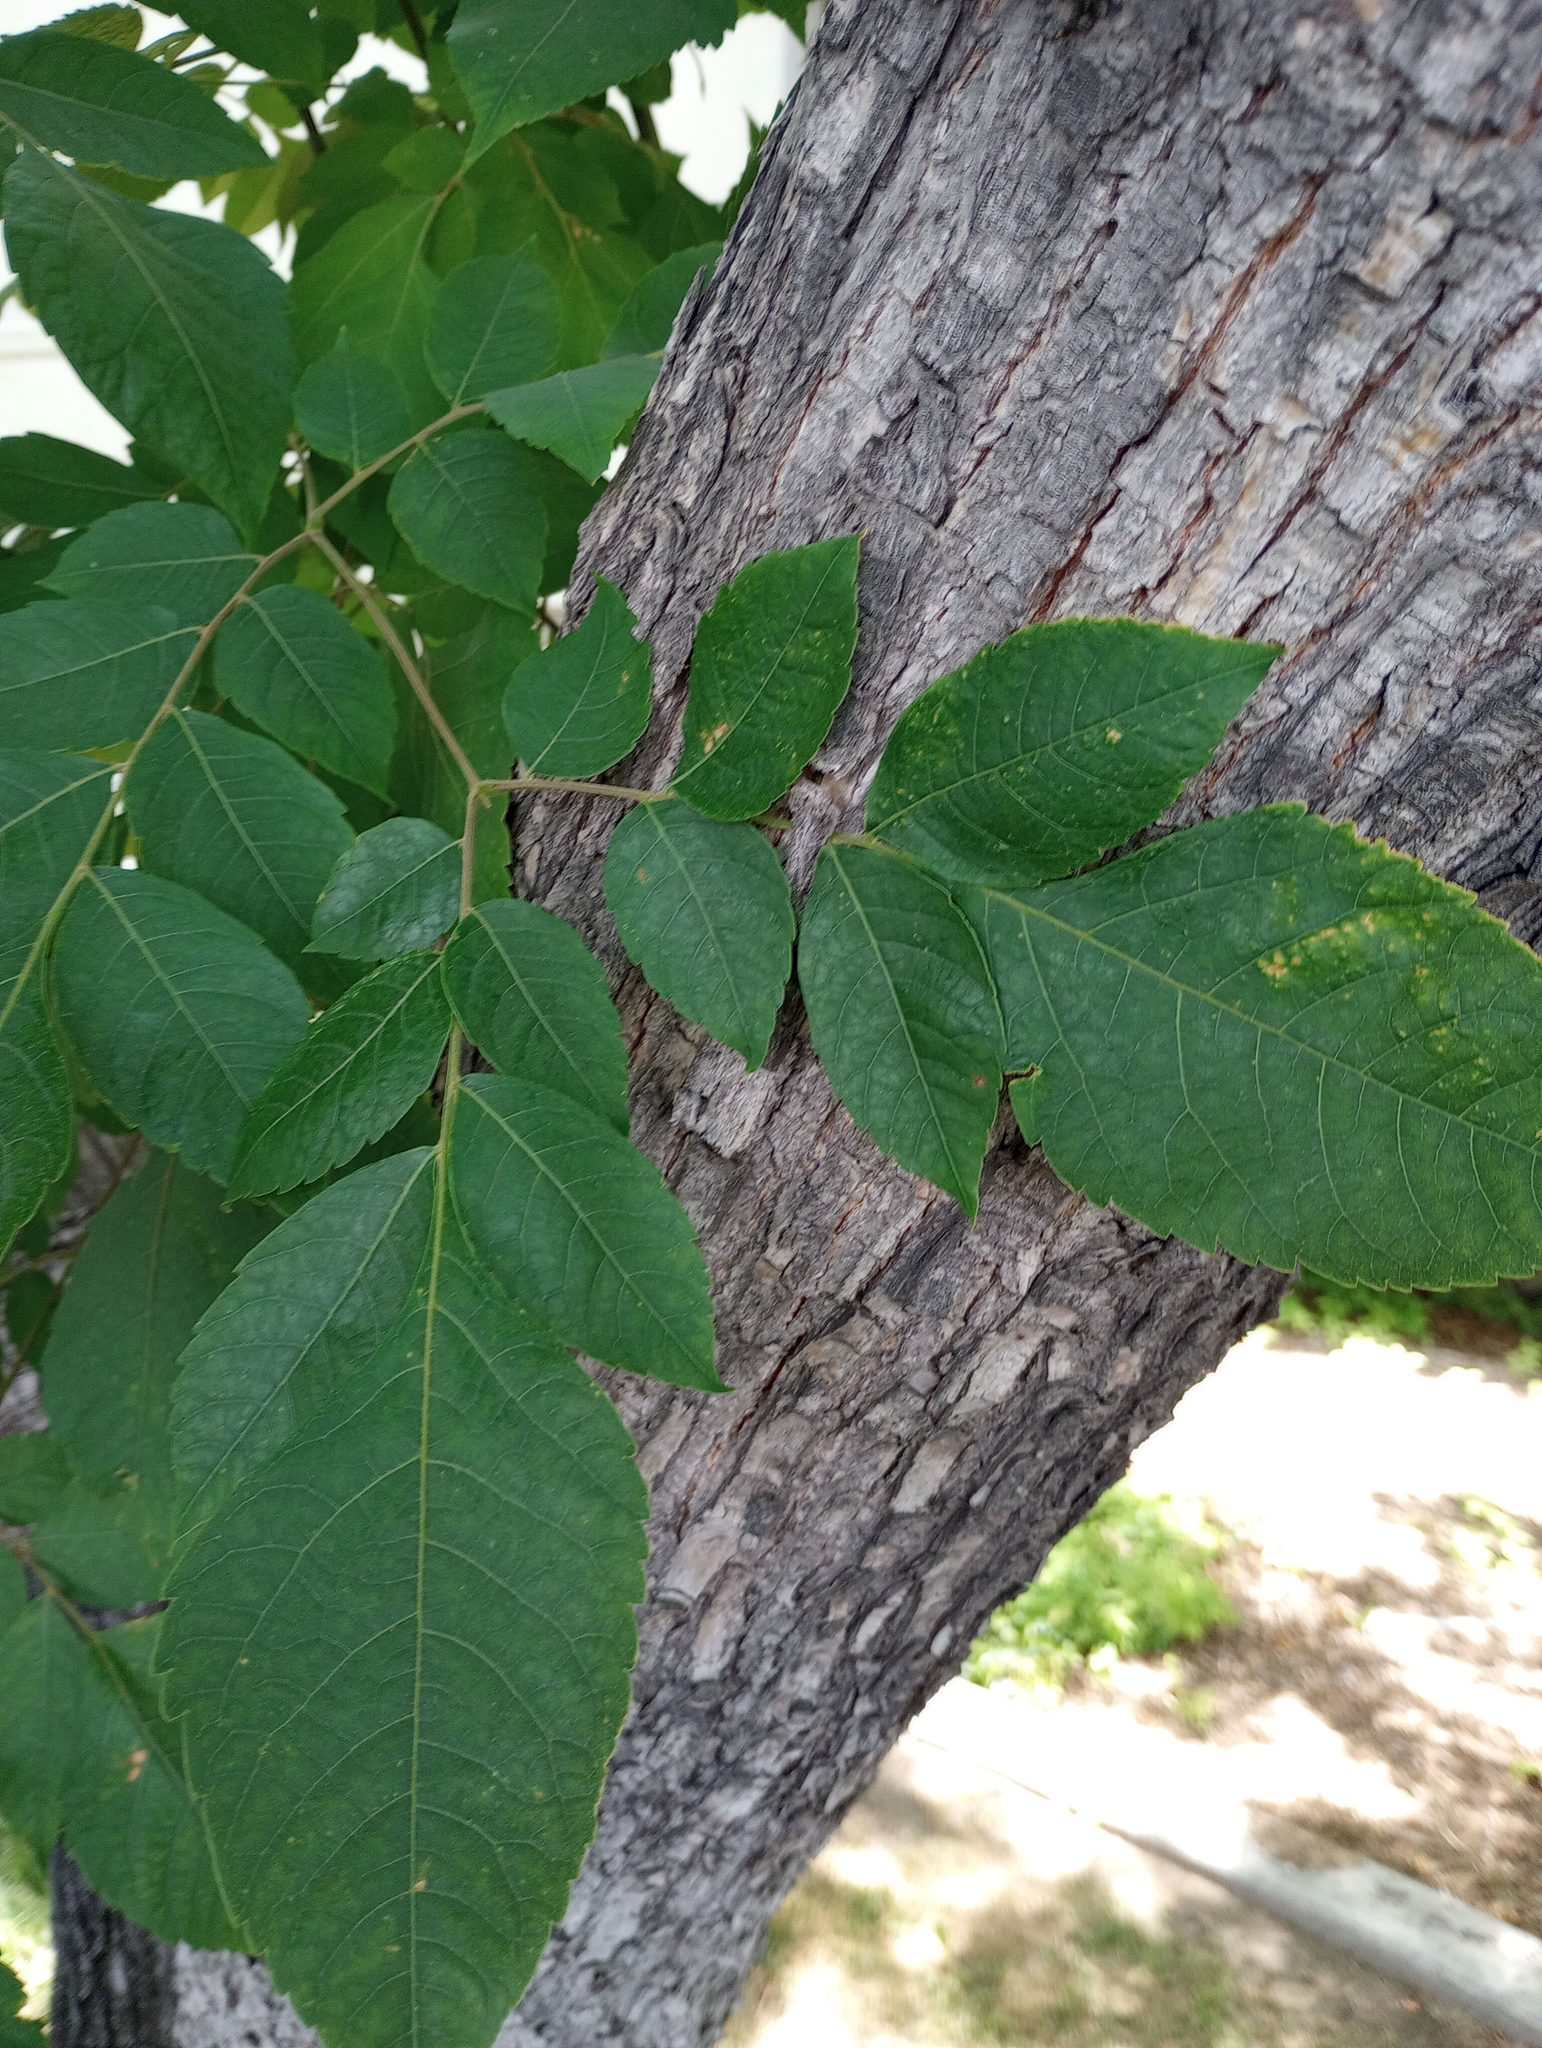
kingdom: Bacteria
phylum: Proteobacteria
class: Alphaproteobacteria
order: Rhizobiales
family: Rhizobiaceae
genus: Rhizobium
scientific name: Rhizobium Agrobacterium radiobacter
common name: Bacterial crown gall
